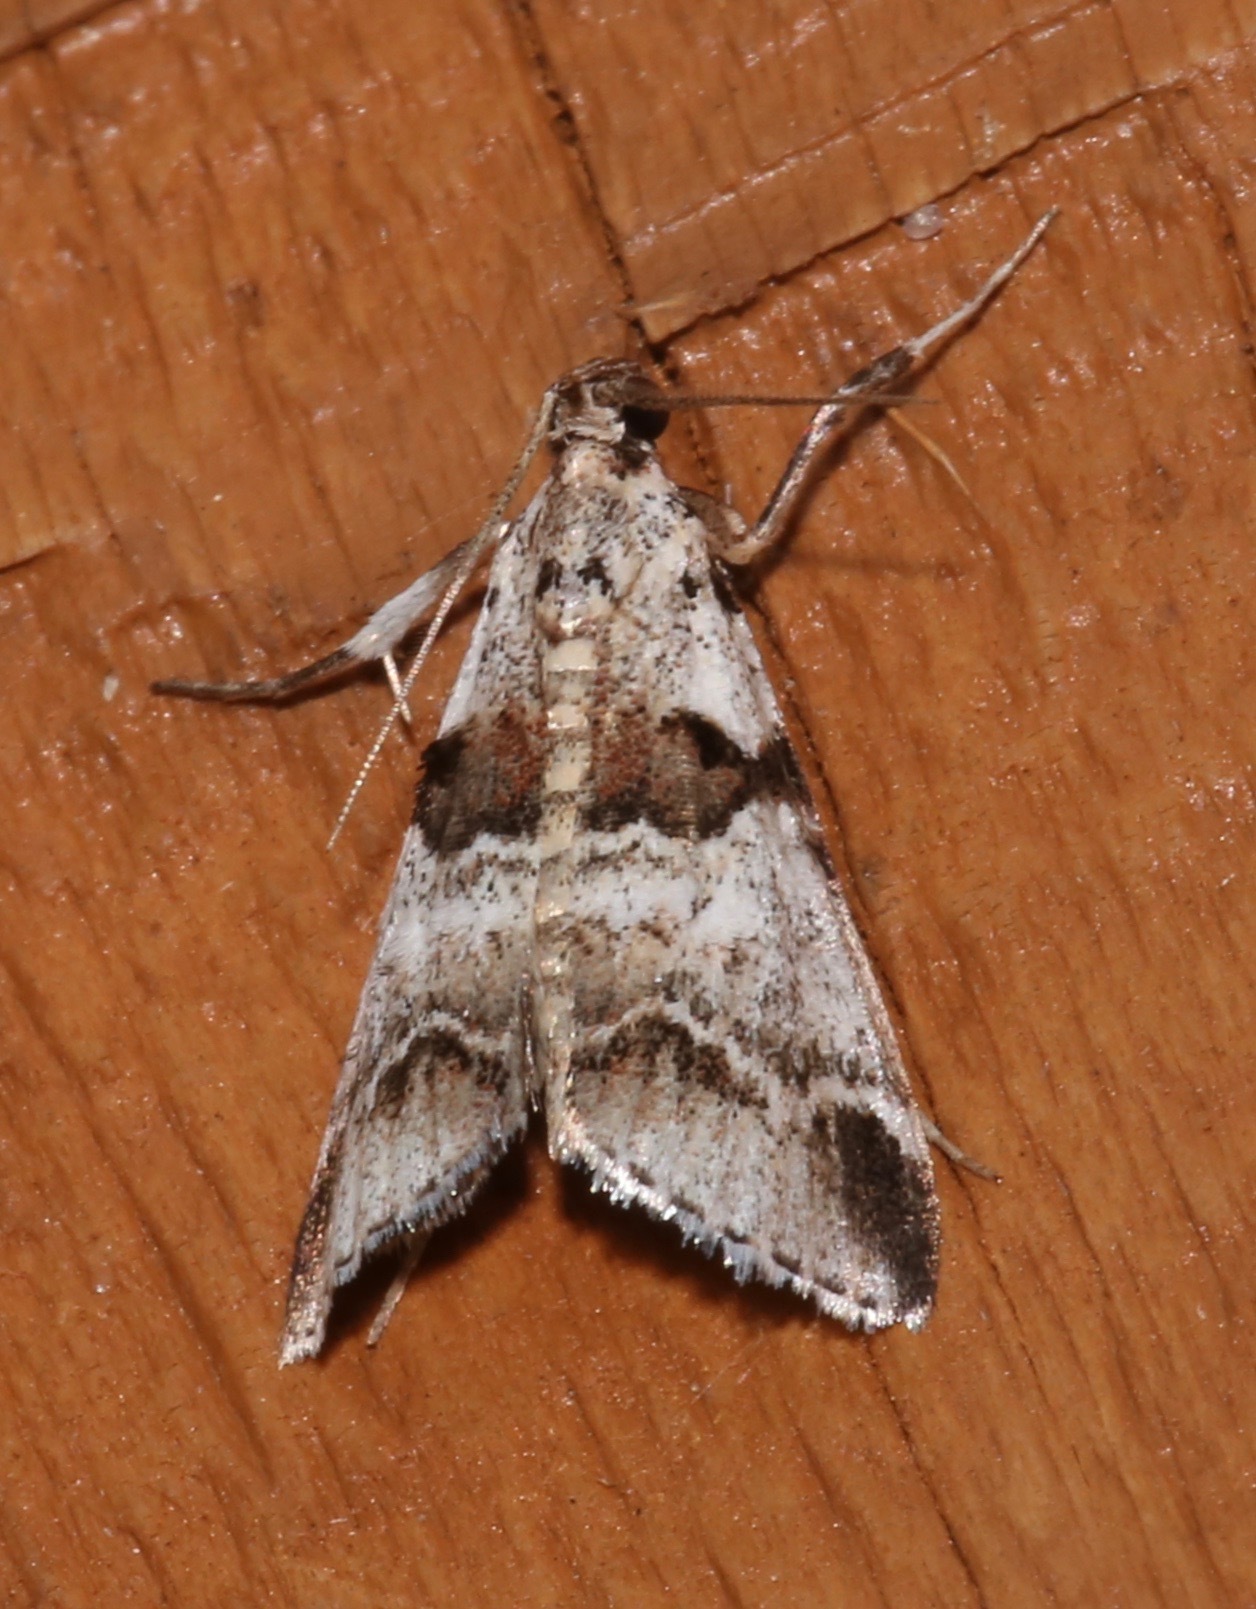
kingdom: Animalia
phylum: Arthropoda
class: Insecta
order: Lepidoptera
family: Pyralidae
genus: Tallula
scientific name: Tallula atrifascialis
